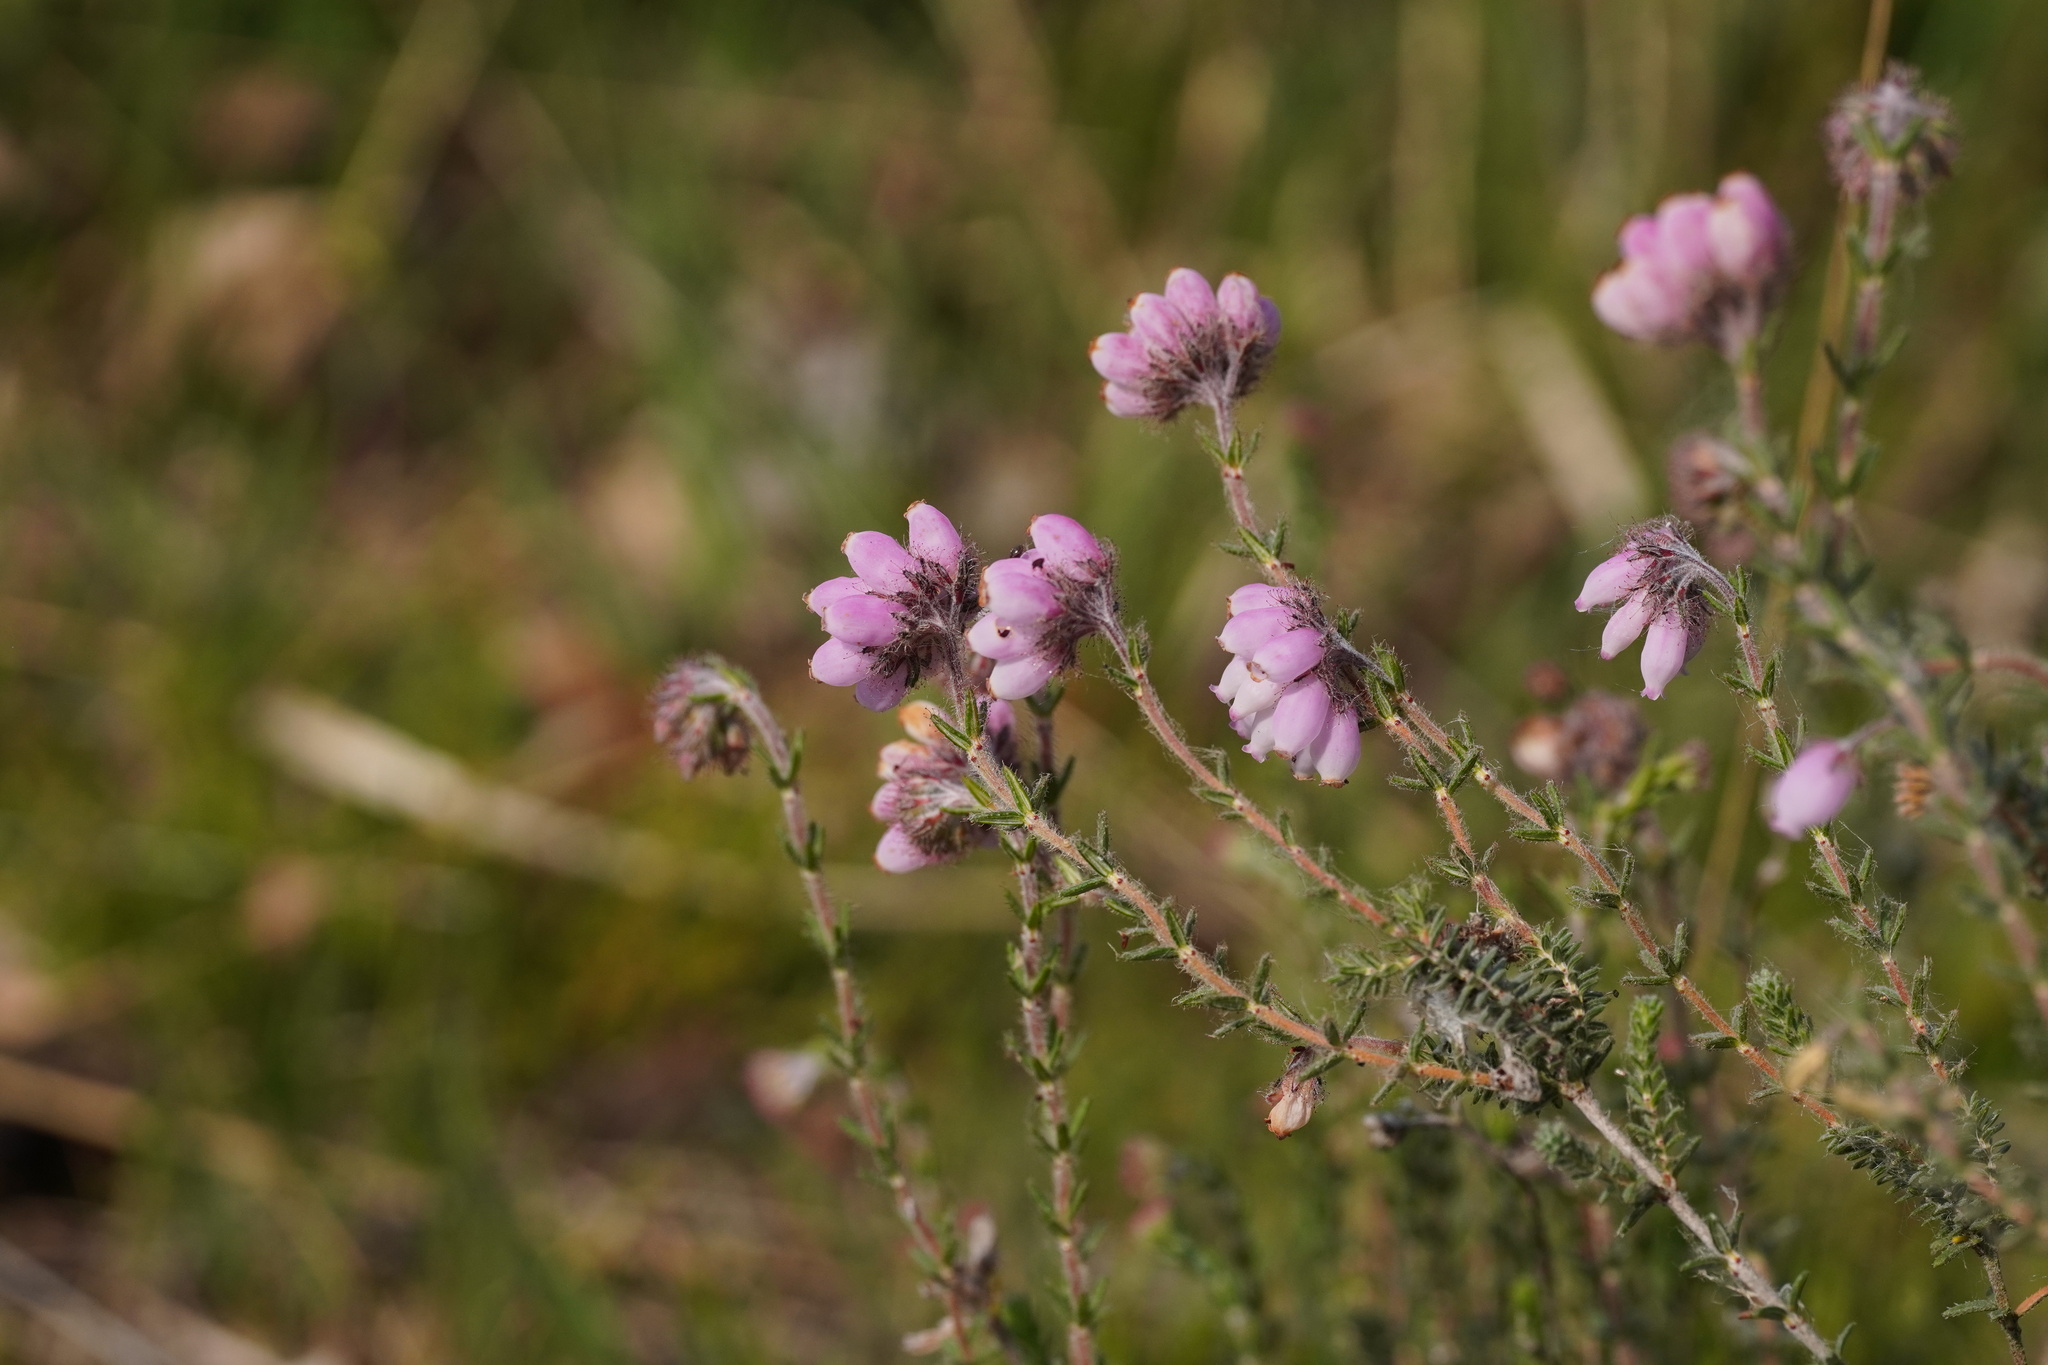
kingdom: Plantae
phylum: Tracheophyta
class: Magnoliopsida
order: Ericales
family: Ericaceae
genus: Erica
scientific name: Erica tetralix
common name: Cross-leaved heath
